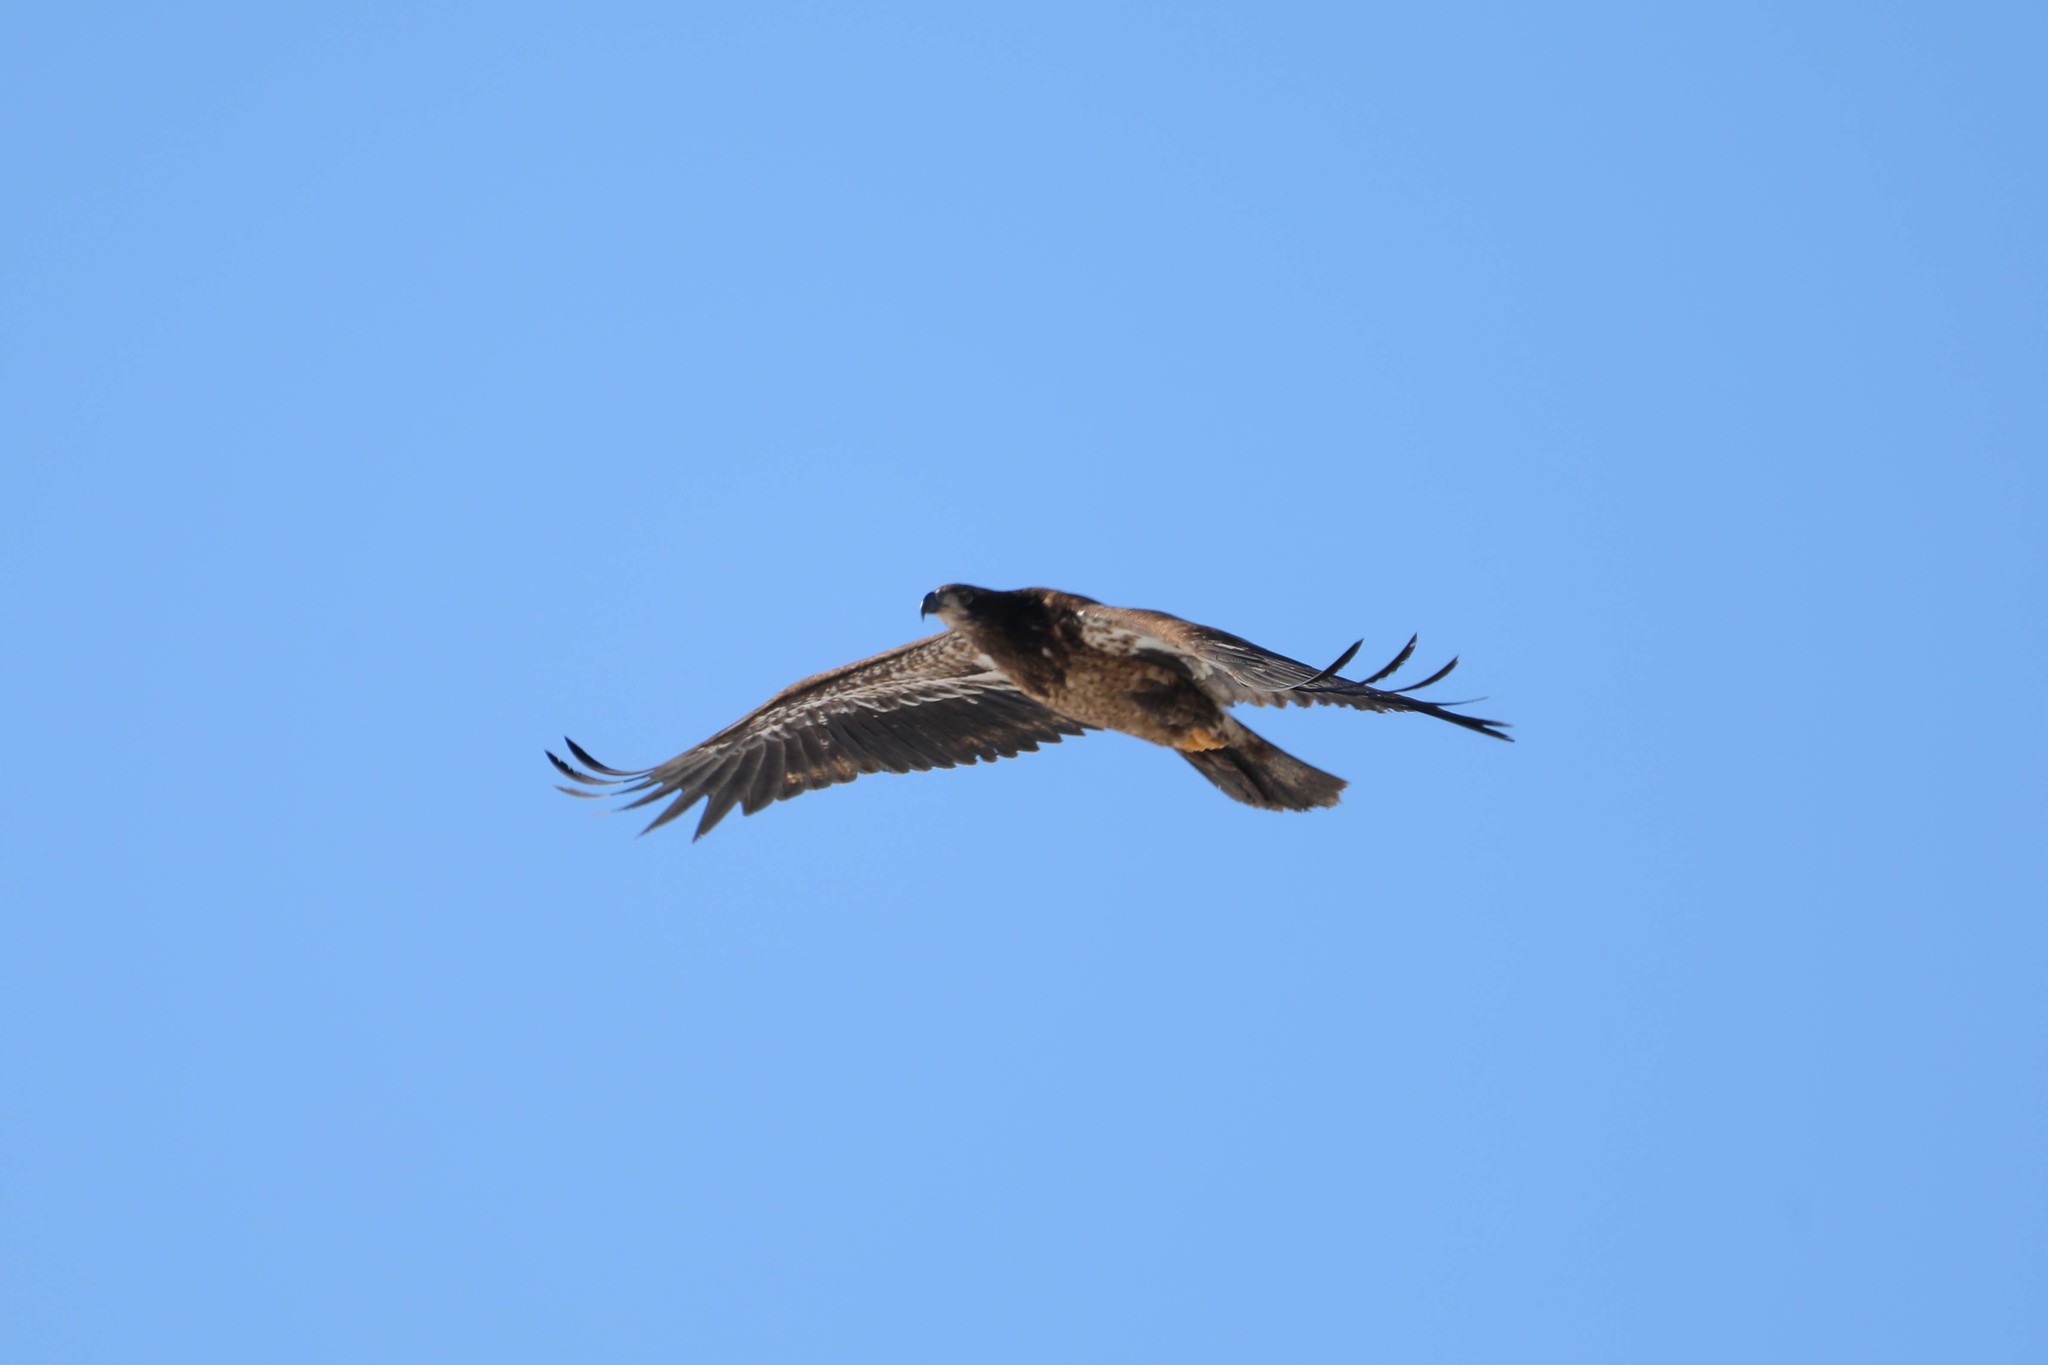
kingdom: Animalia
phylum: Chordata
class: Aves
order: Accipitriformes
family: Accipitridae
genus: Haliaeetus
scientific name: Haliaeetus leucocephalus
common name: Bald eagle
